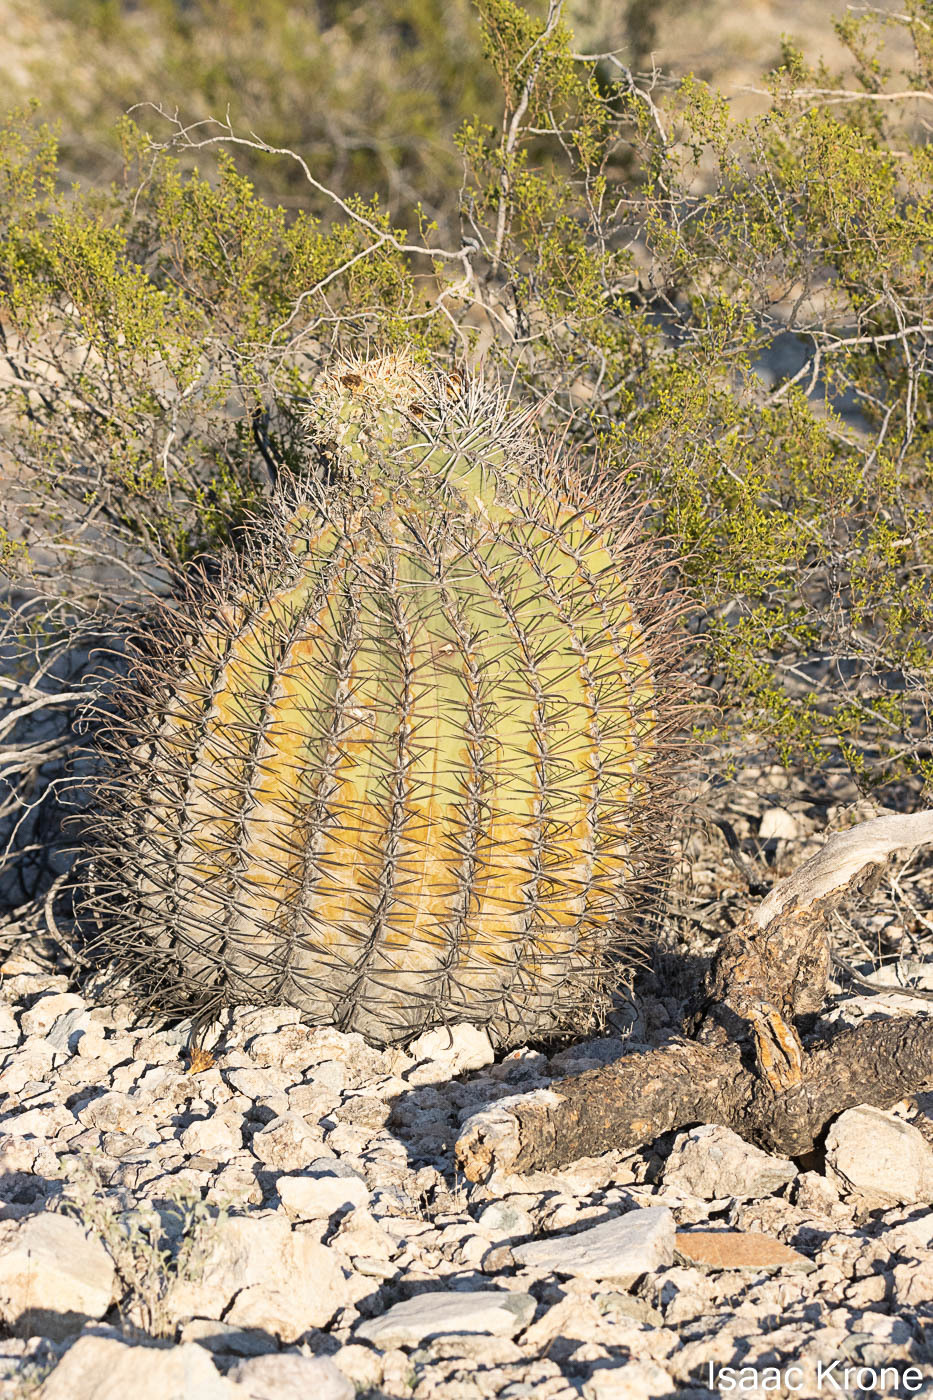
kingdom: Plantae
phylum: Tracheophyta
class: Magnoliopsida
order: Caryophyllales
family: Cactaceae
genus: Ferocactus
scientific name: Ferocactus emoryi
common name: Emory's barrel cactus
